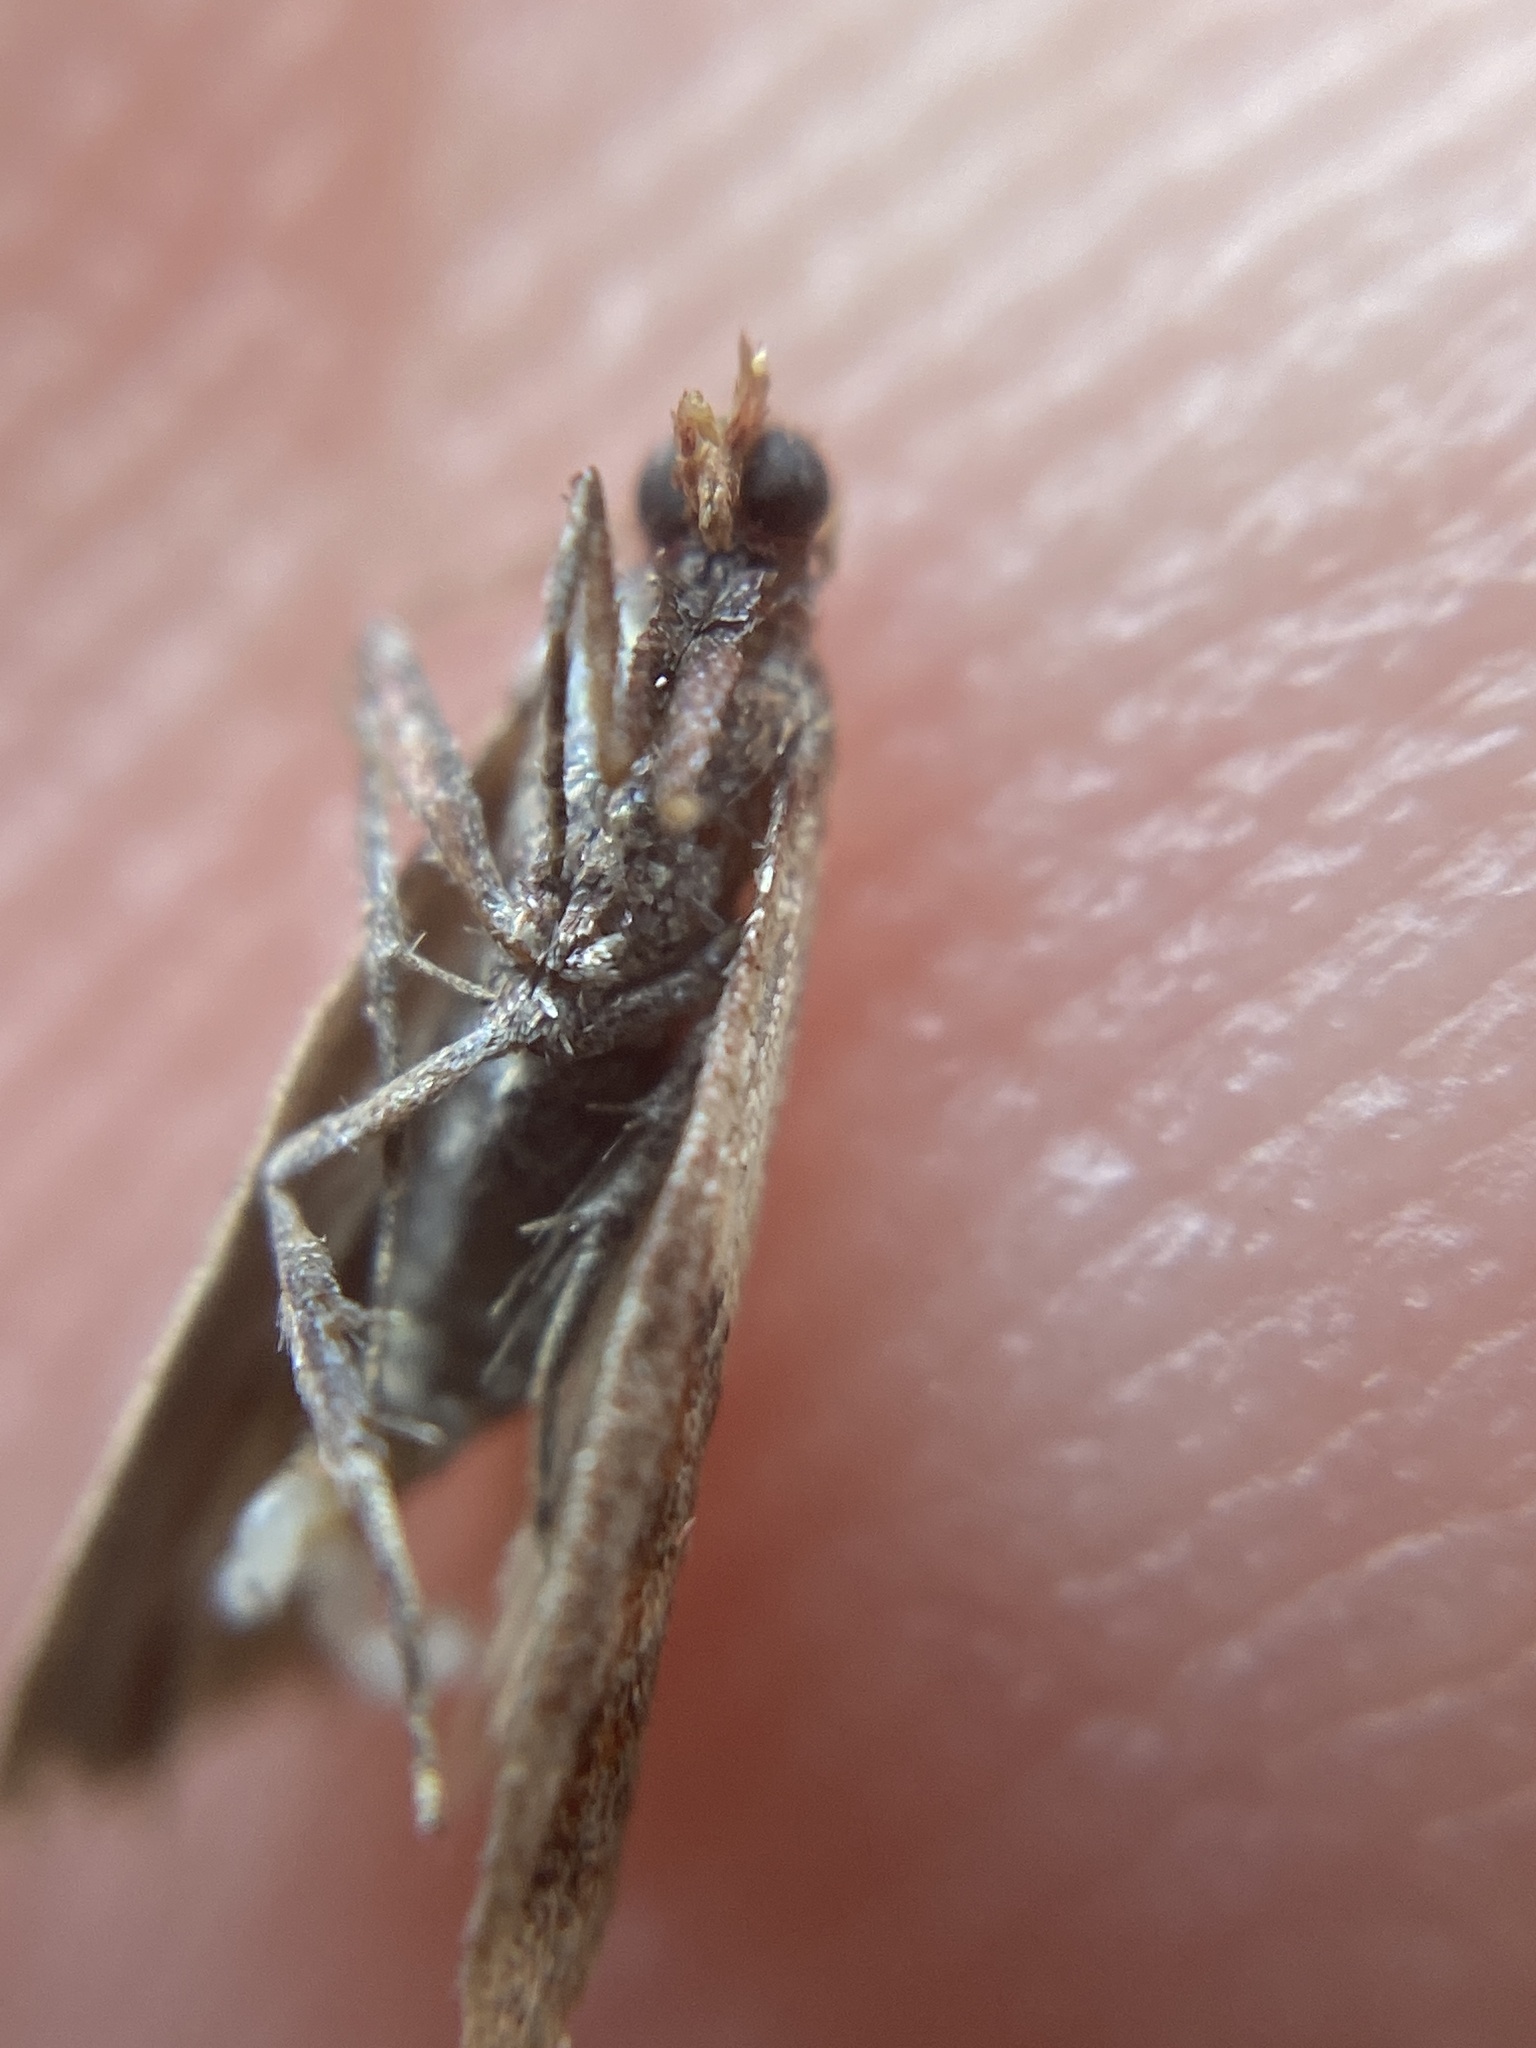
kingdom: Animalia
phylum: Arthropoda
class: Insecta
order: Lepidoptera
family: Pyralidae
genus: Plodia
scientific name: Plodia interpunctella
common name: Indian meal moth
